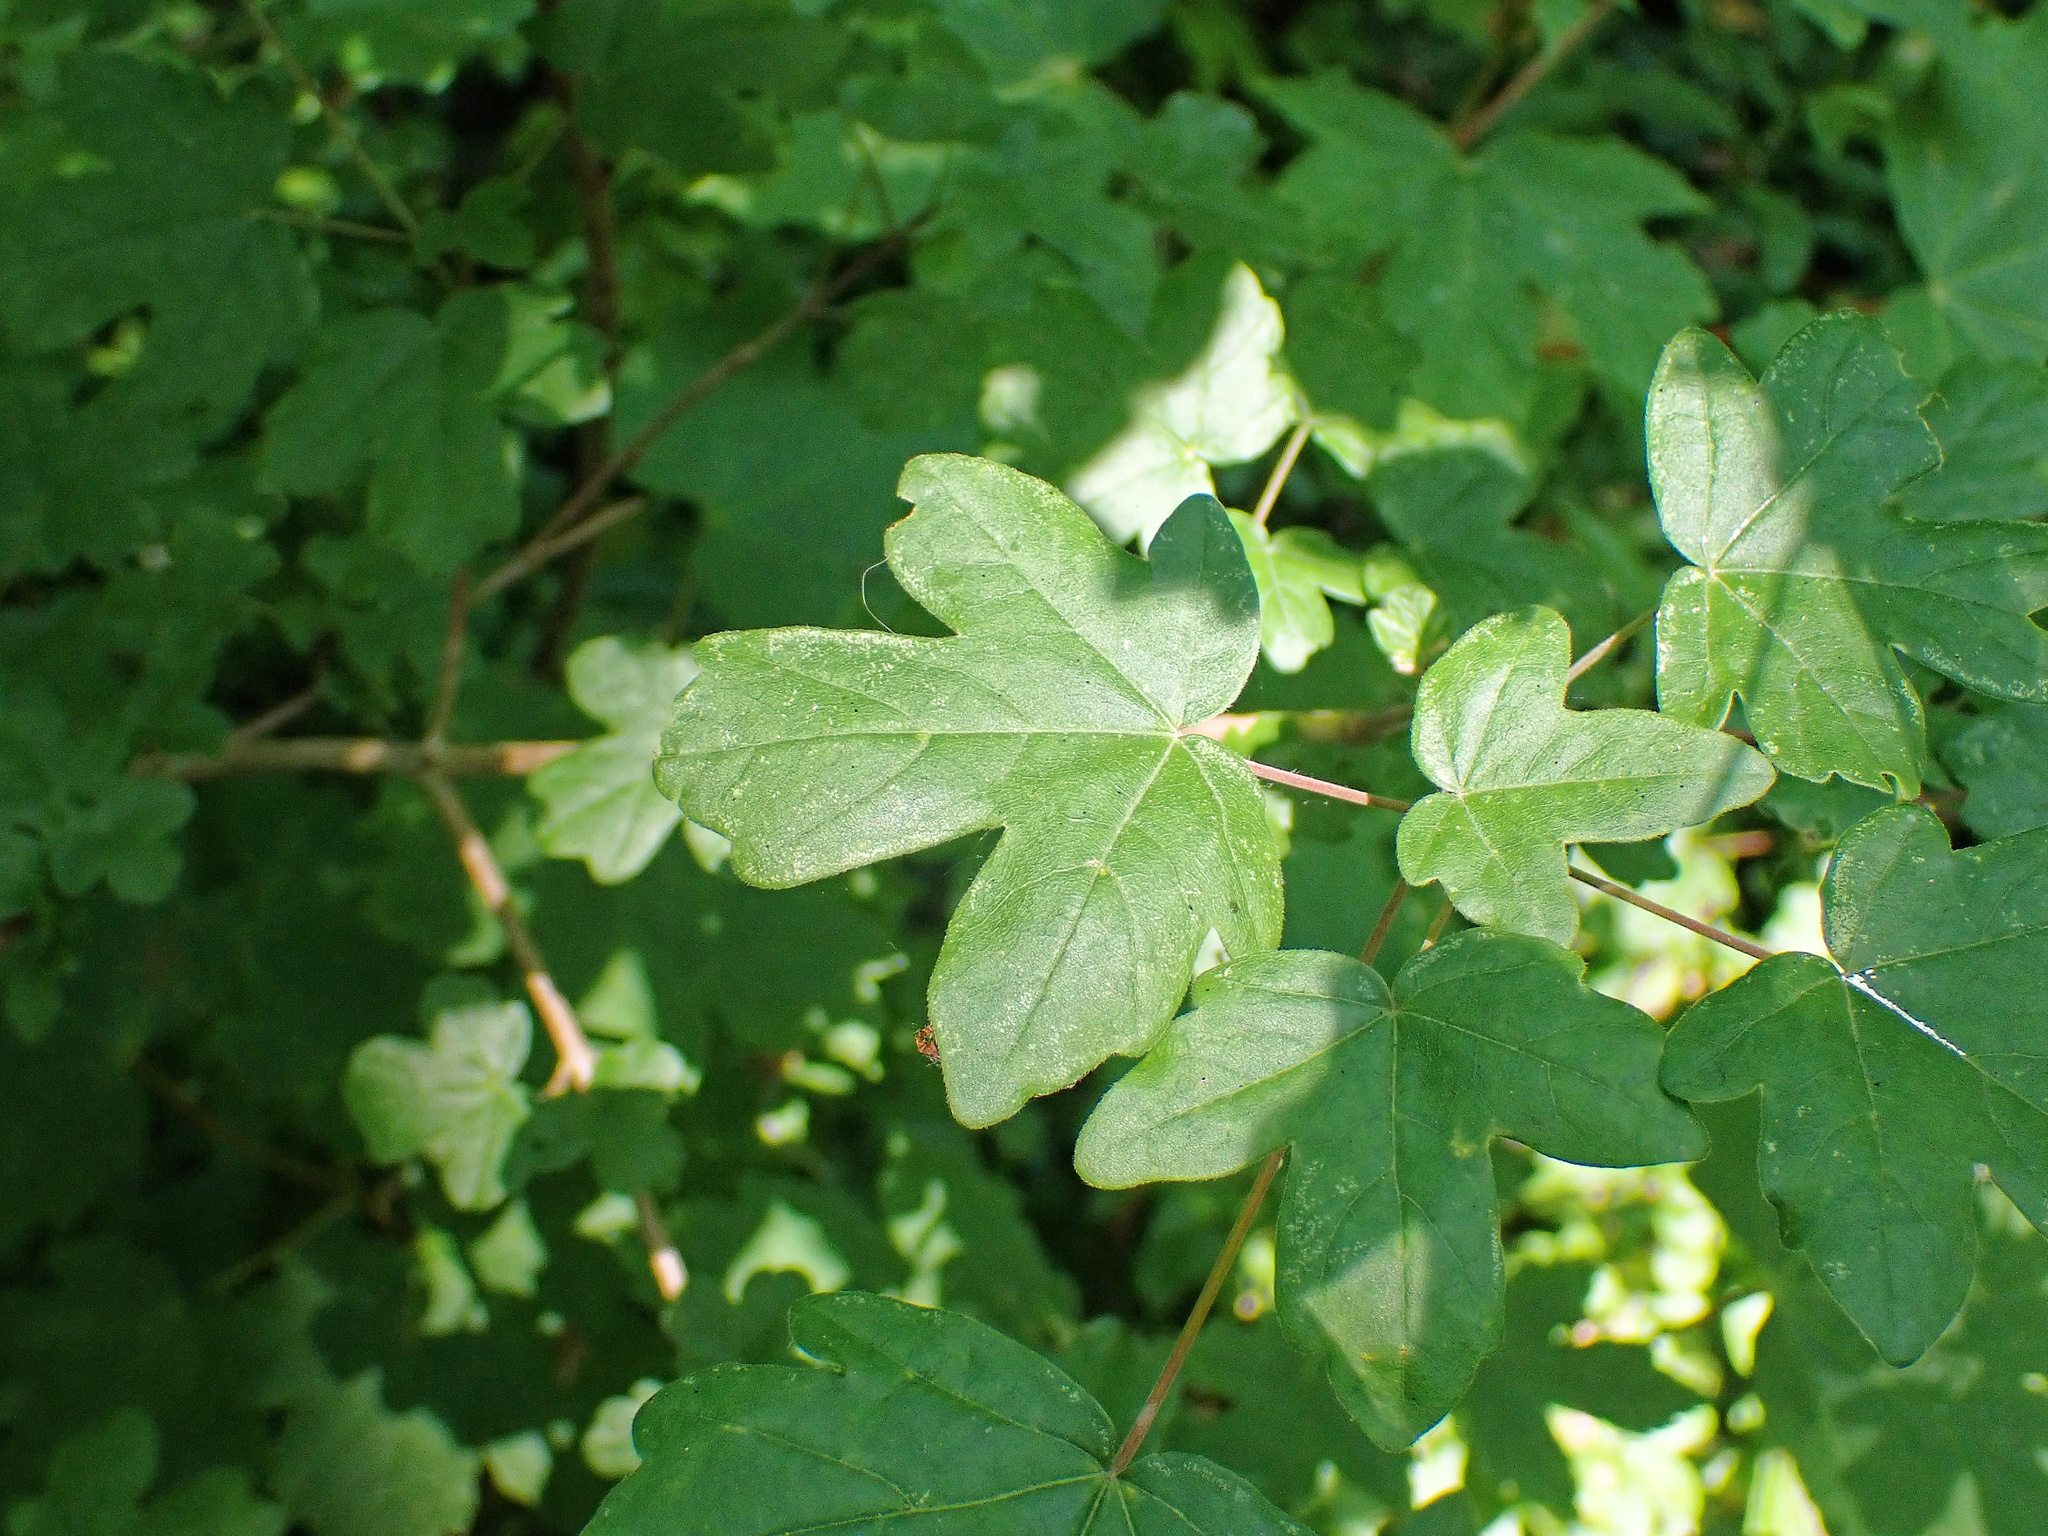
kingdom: Plantae
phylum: Tracheophyta
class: Magnoliopsida
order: Sapindales
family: Sapindaceae
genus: Acer
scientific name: Acer campestre
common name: Field maple
